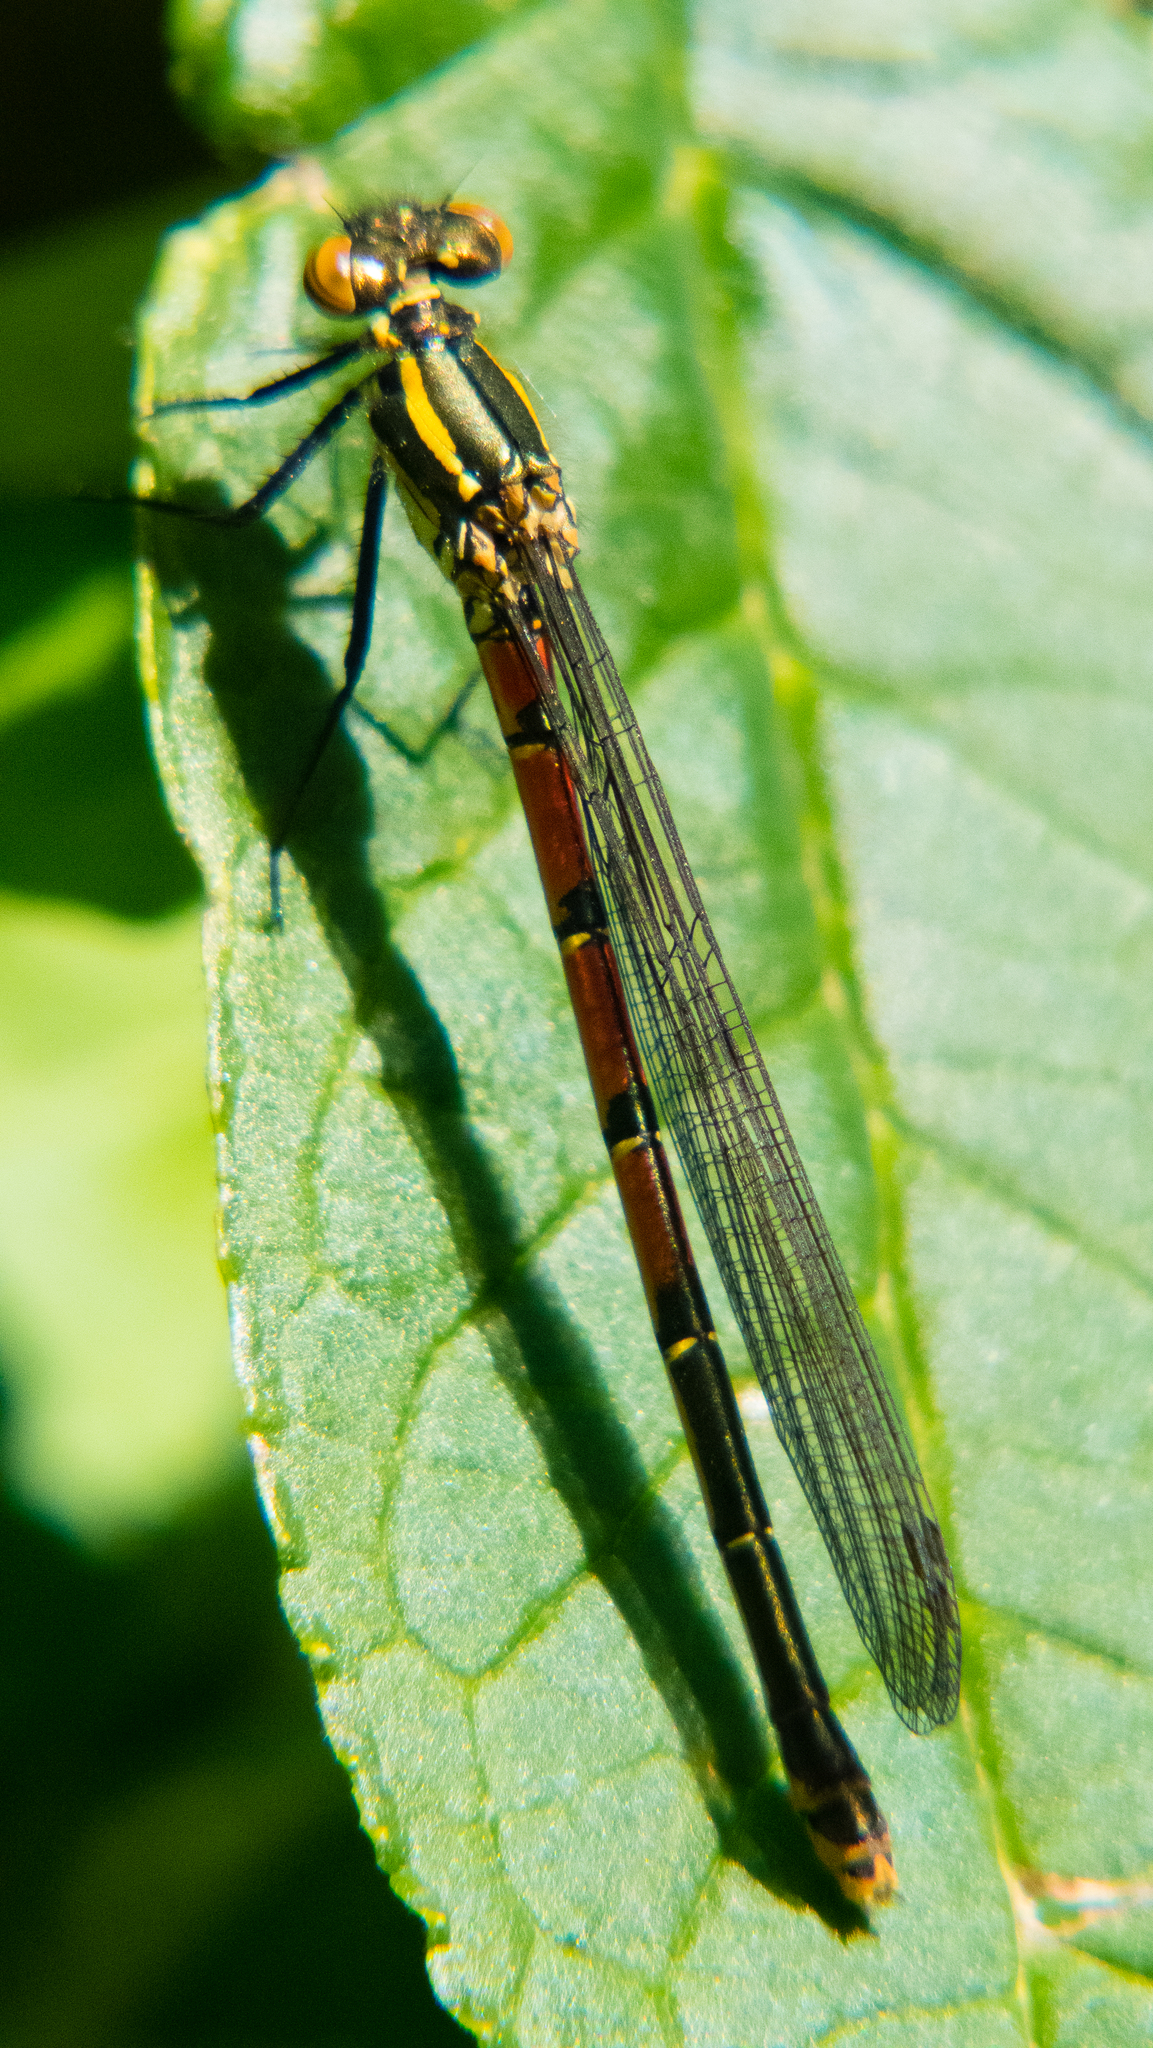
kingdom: Animalia
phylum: Arthropoda
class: Insecta
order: Odonata
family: Coenagrionidae
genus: Pyrrhosoma
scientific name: Pyrrhosoma nymphula
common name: Large red damsel
